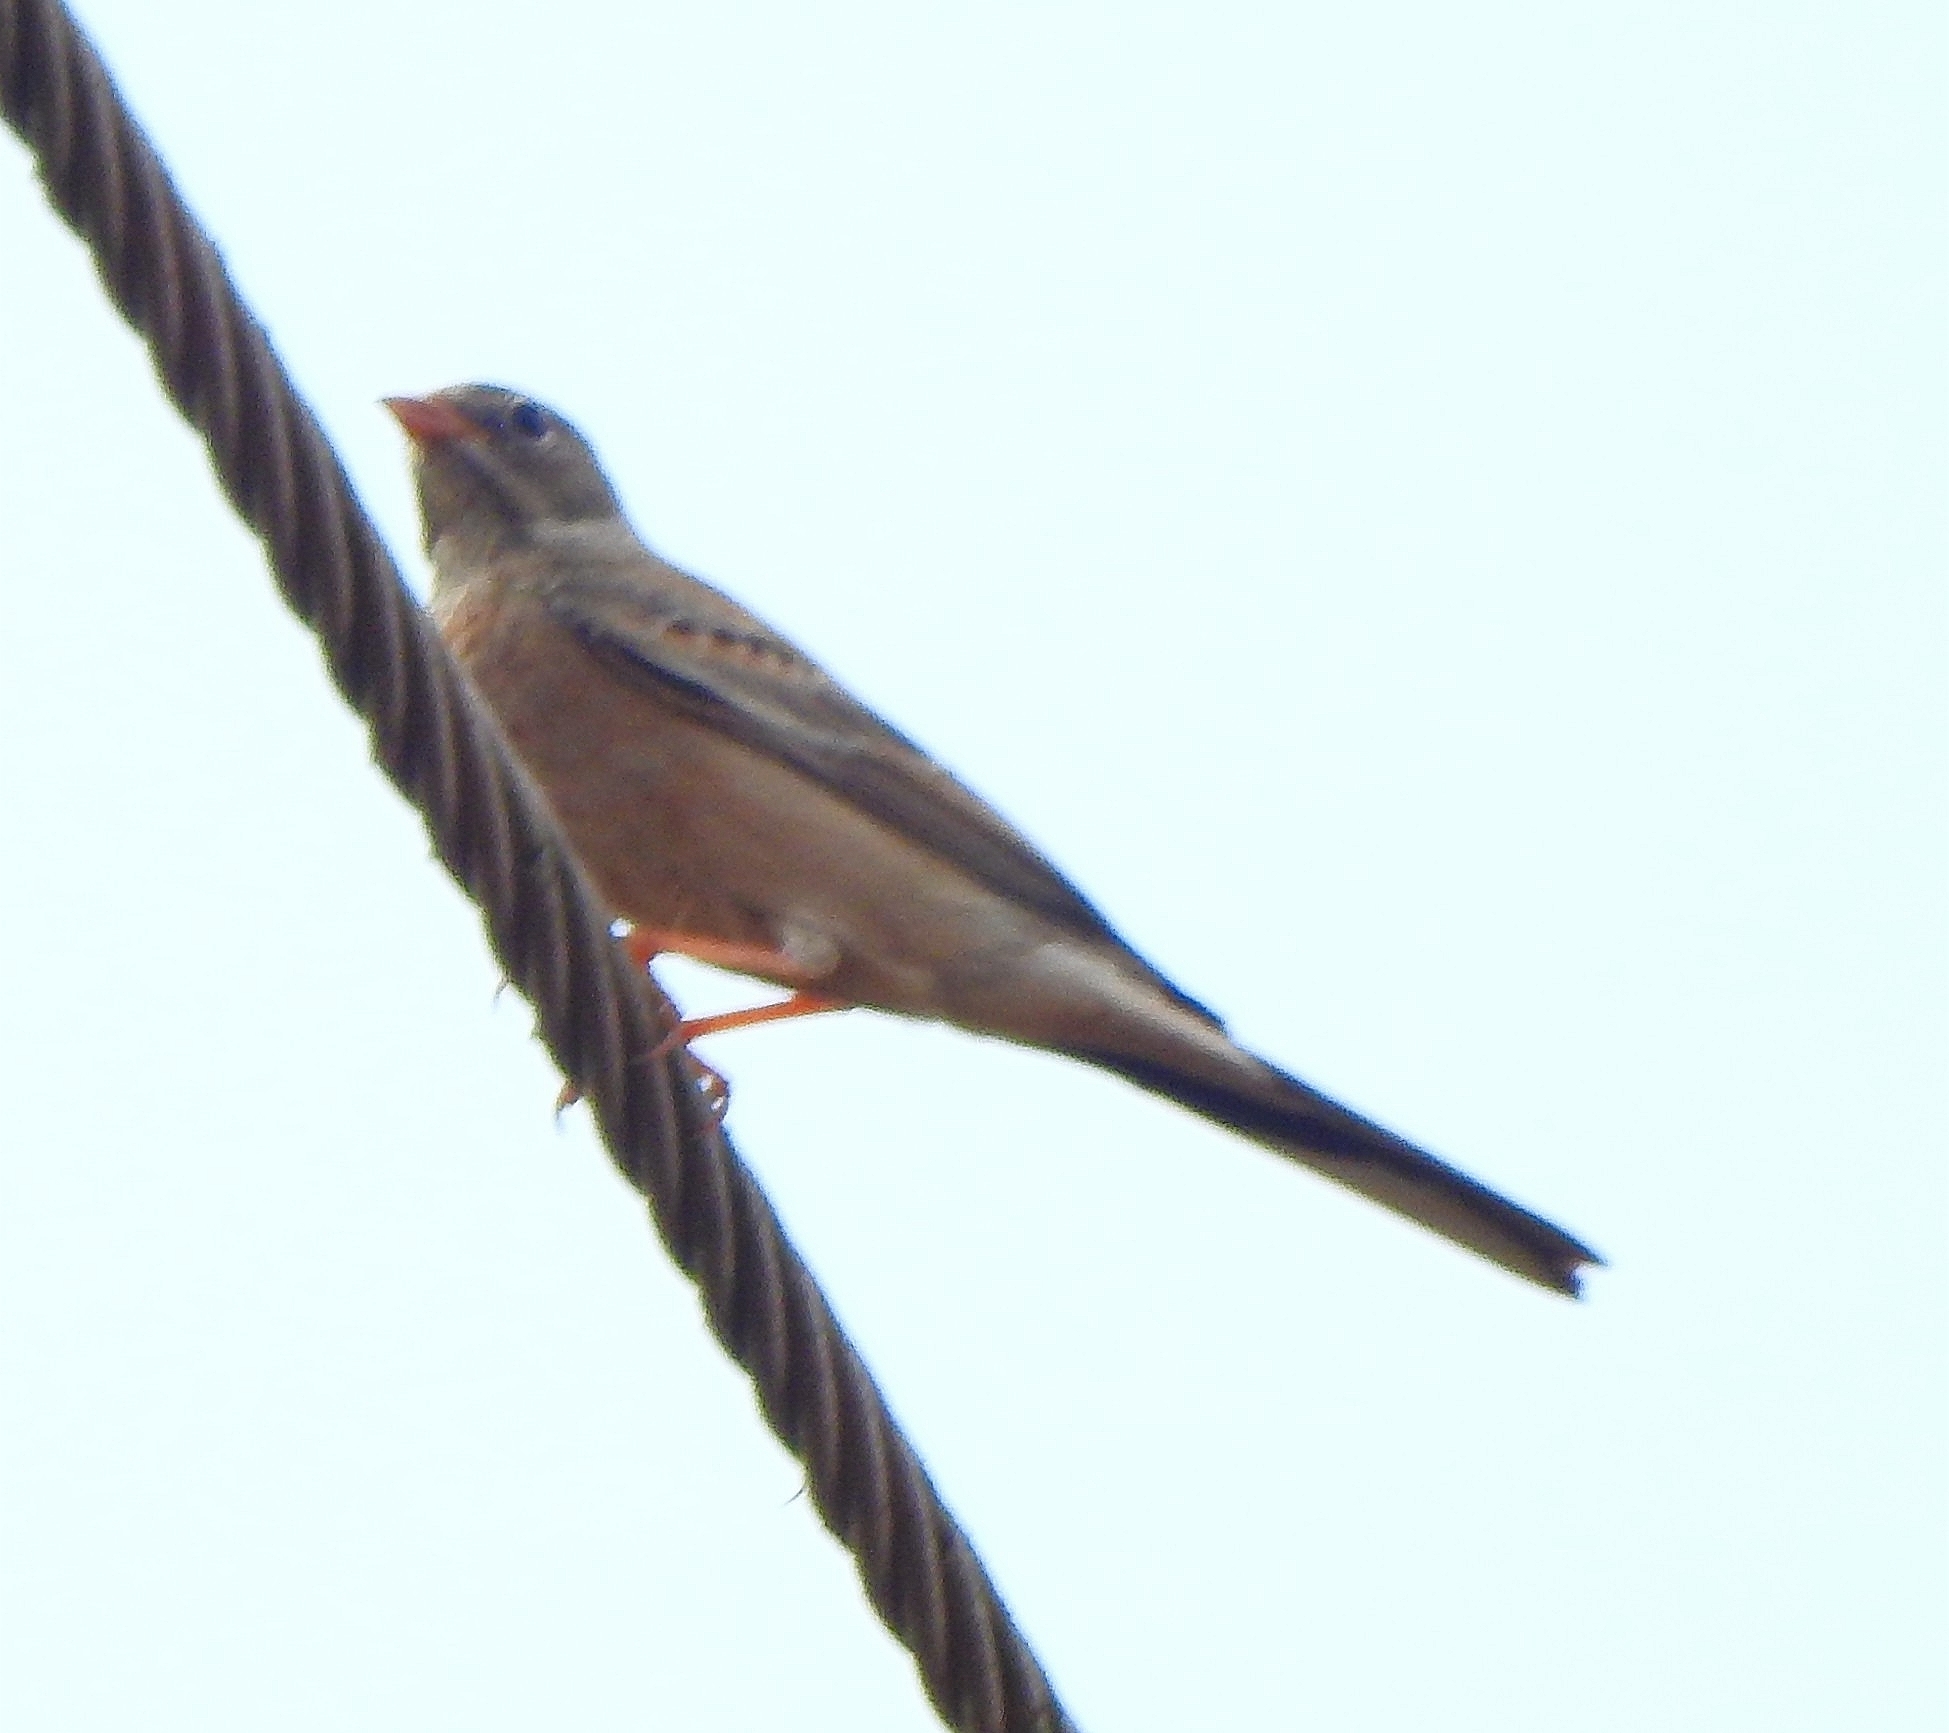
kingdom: Animalia
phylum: Chordata
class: Aves
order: Passeriformes
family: Emberizidae
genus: Emberiza
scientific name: Emberiza buchanani
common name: Grey-necked bunting
